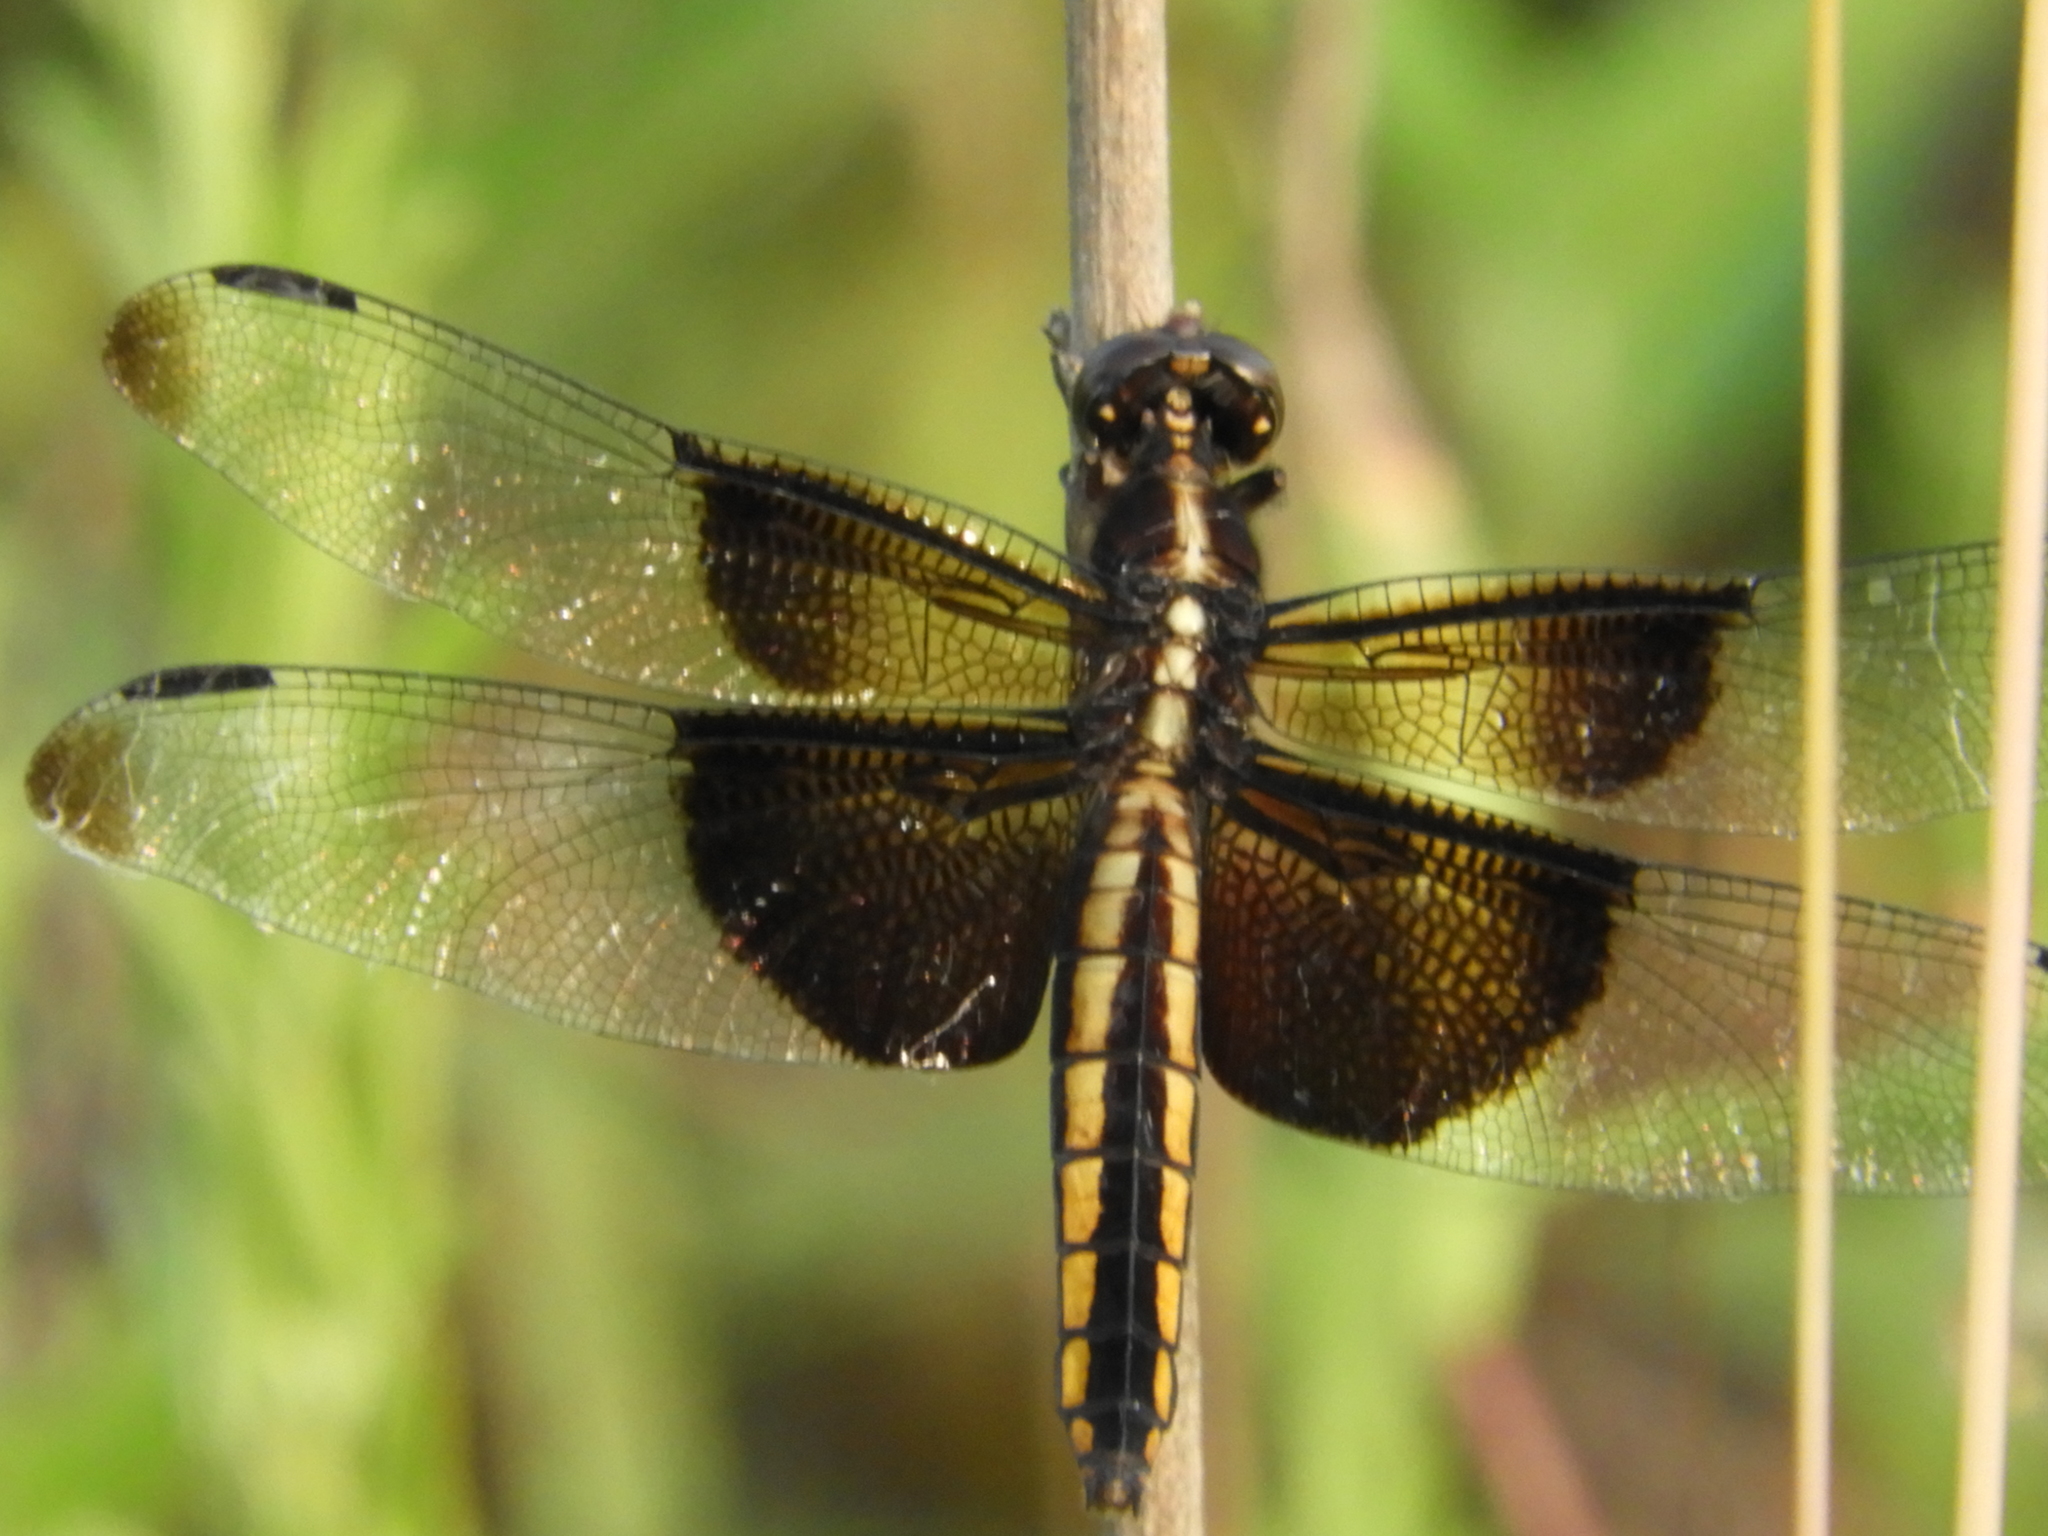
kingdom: Animalia
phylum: Arthropoda
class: Insecta
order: Odonata
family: Libellulidae
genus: Libellula
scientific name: Libellula luctuosa
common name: Widow skimmer
